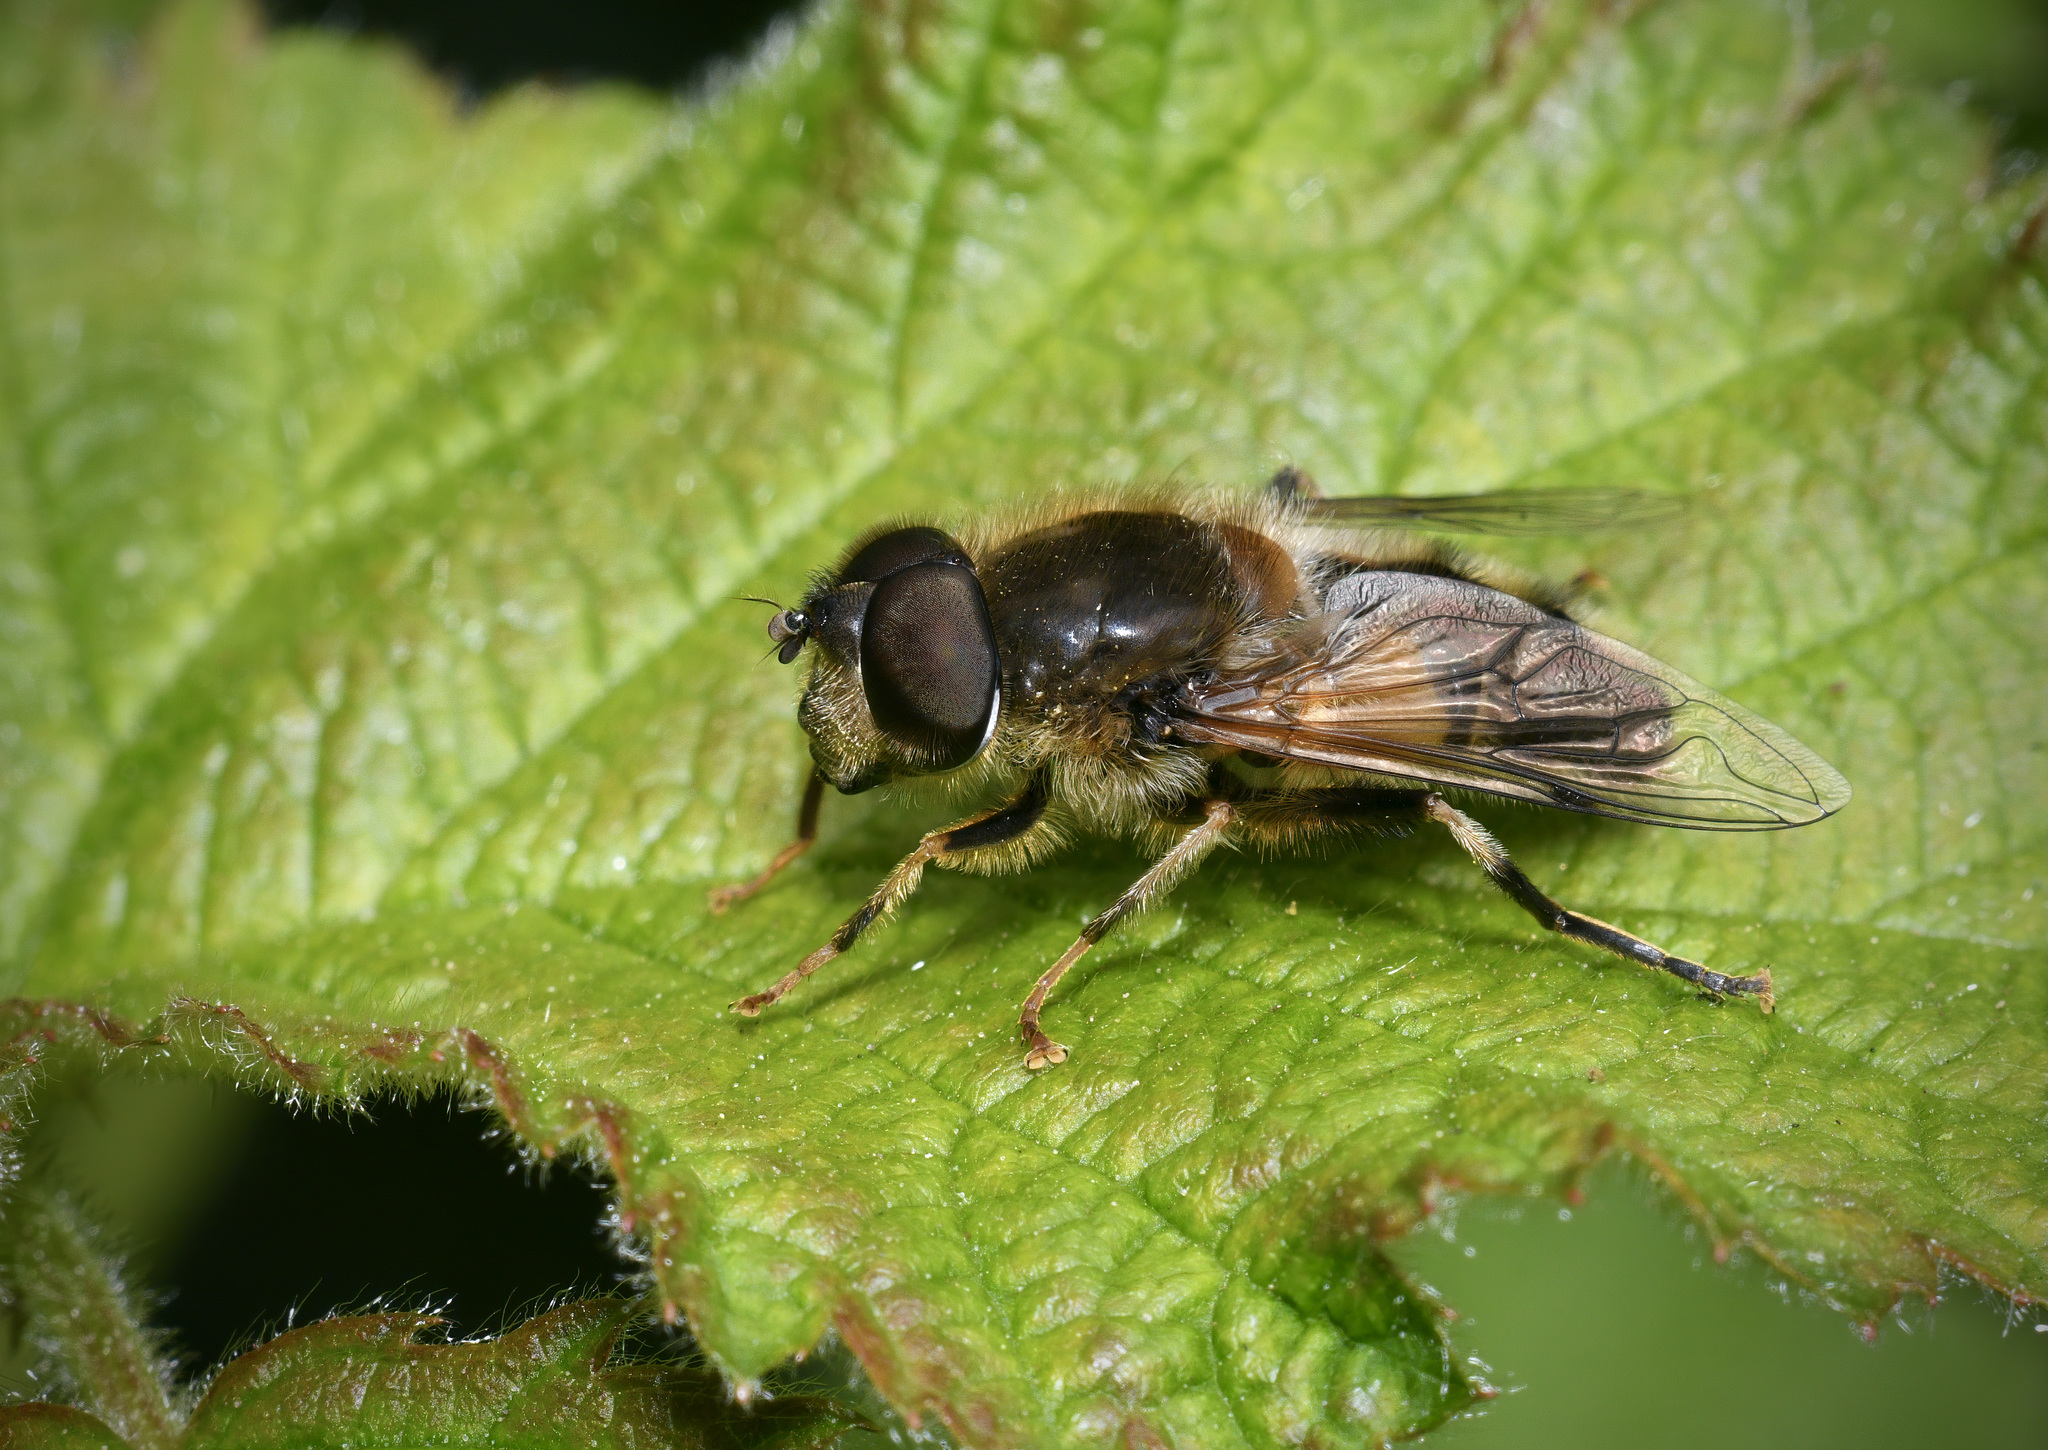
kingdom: Animalia
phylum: Arthropoda
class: Insecta
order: Diptera
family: Syrphidae
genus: Eristalis
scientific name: Eristalis pertinax
